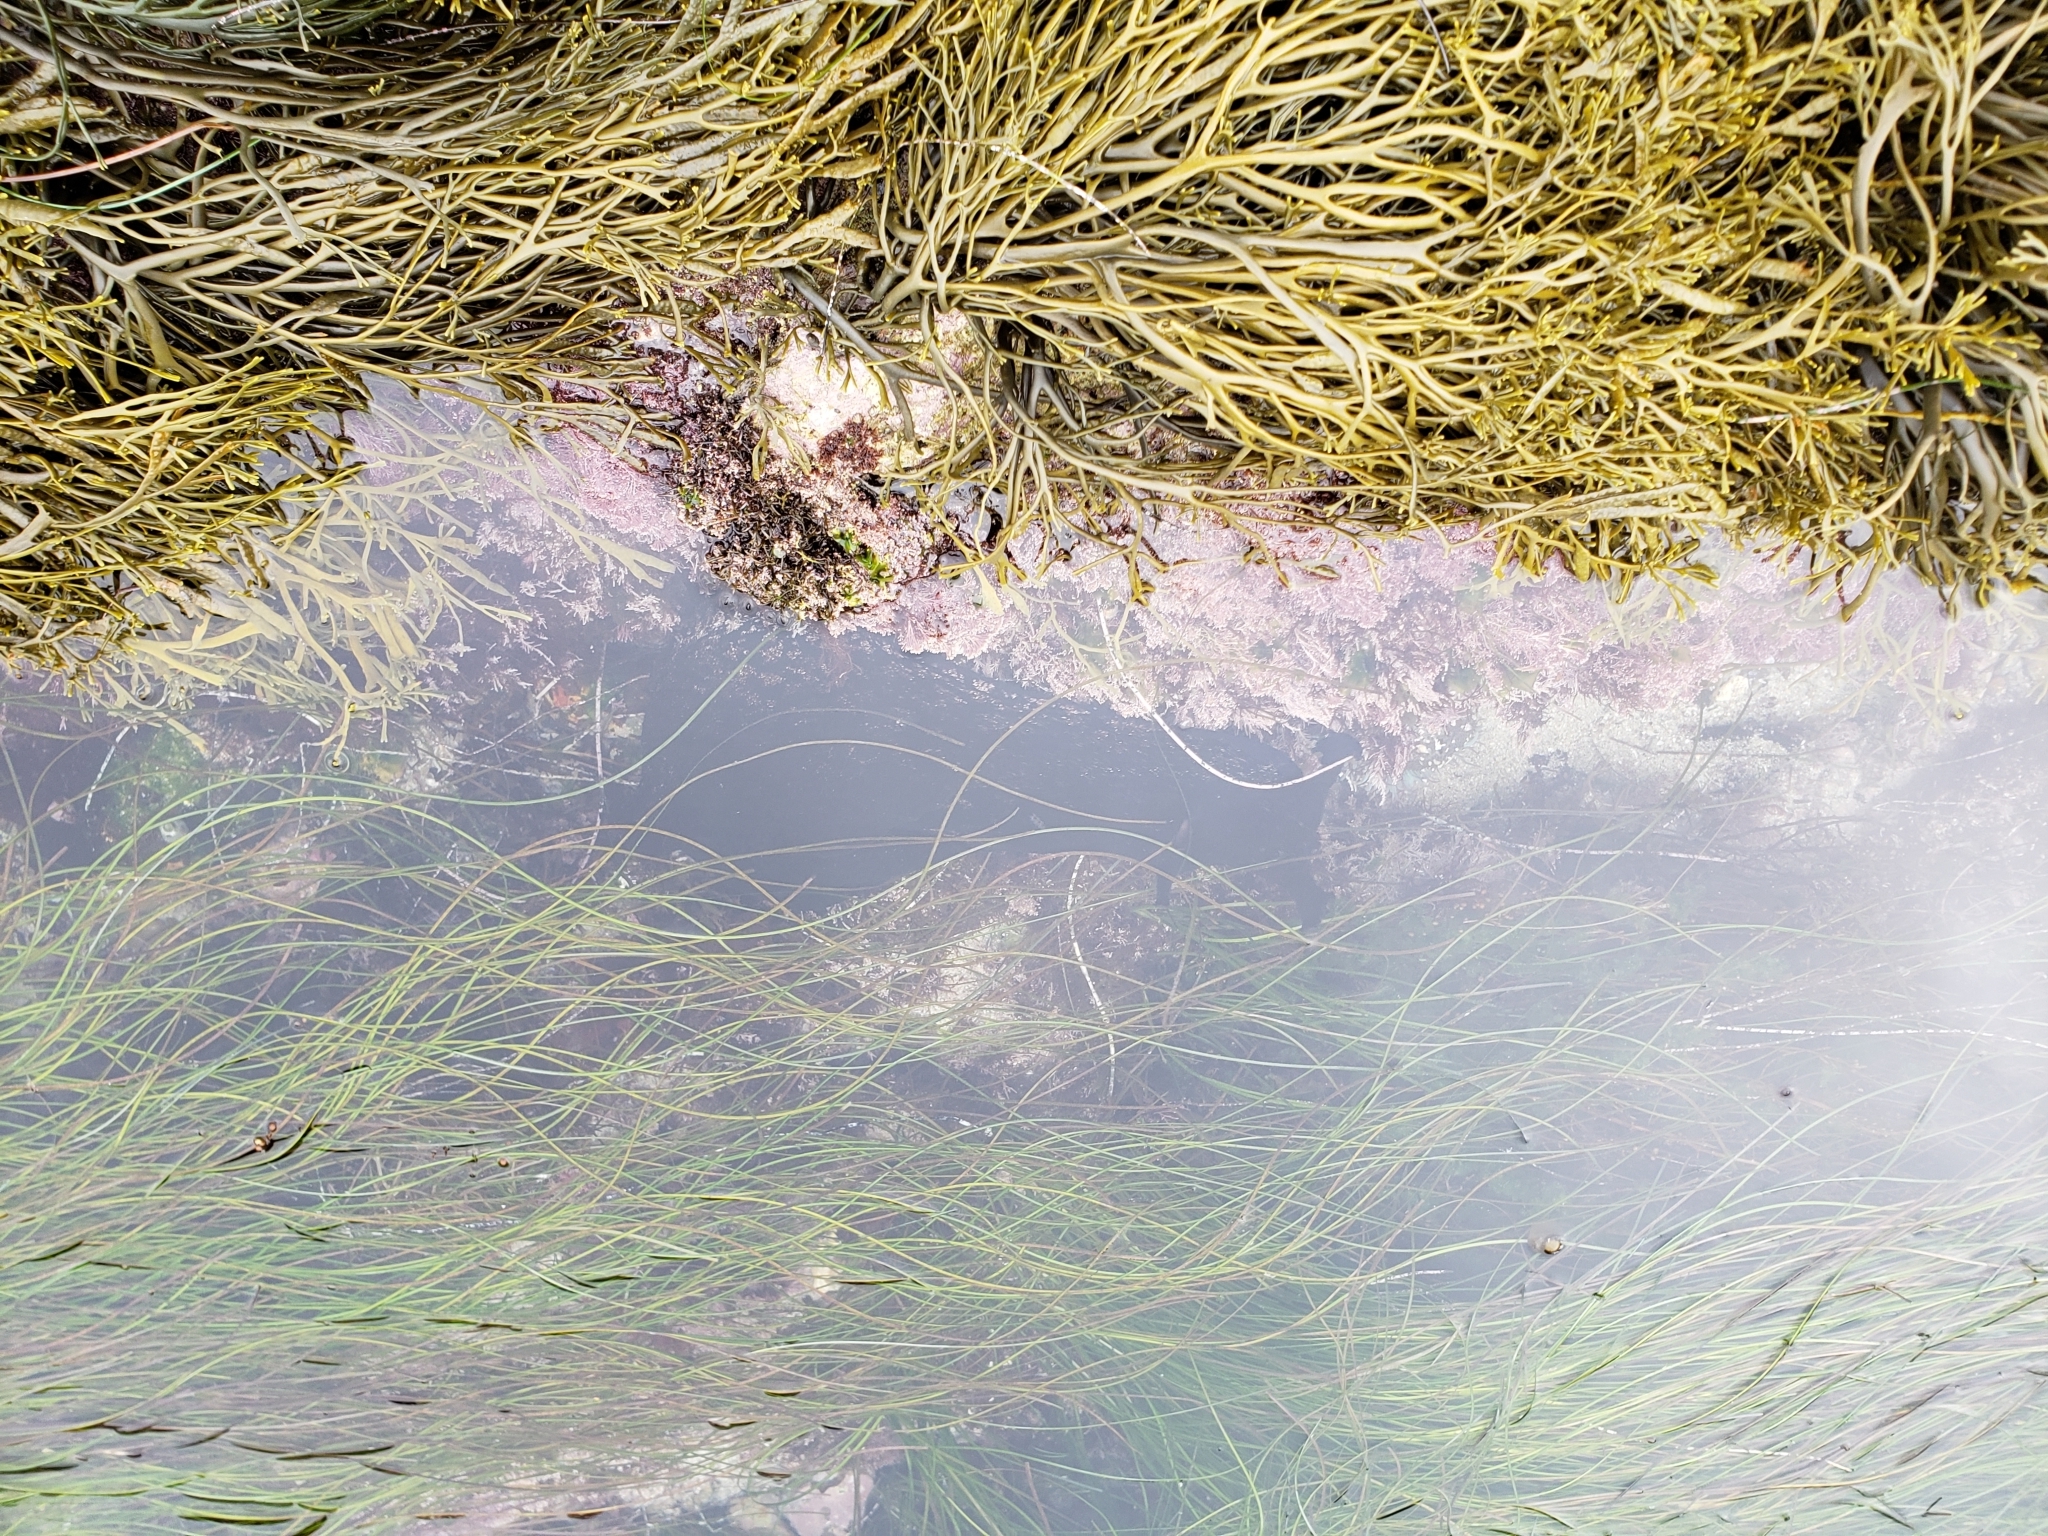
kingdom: Animalia
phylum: Mollusca
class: Gastropoda
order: Aplysiida
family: Aplysiidae
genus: Aplysia
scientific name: Aplysia vaccaria
